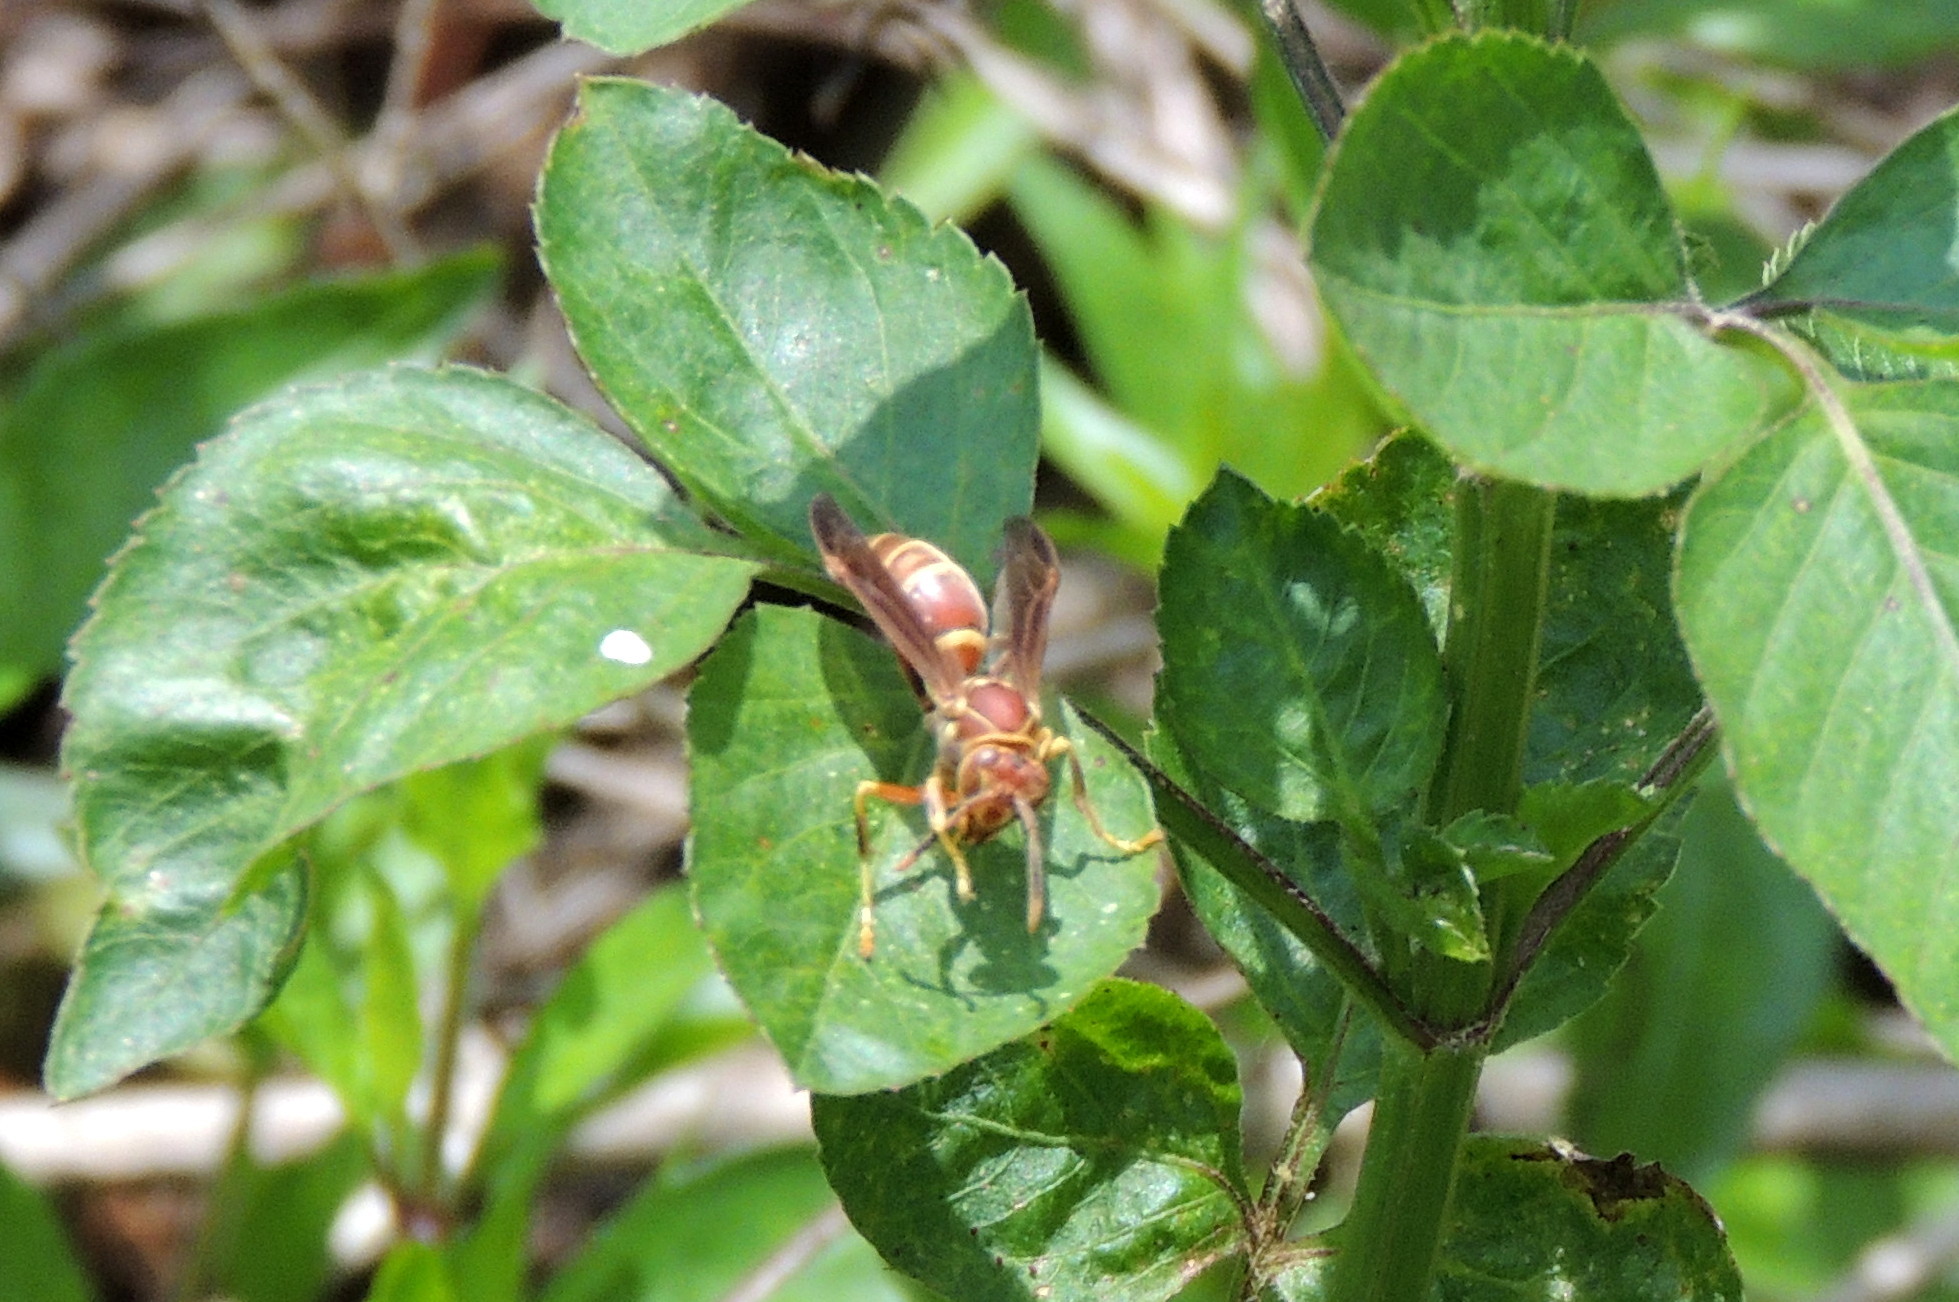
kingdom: Animalia
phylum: Arthropoda
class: Insecta
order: Hymenoptera
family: Eumenidae
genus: Polistes
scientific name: Polistes exclamans
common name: Paper wasp
